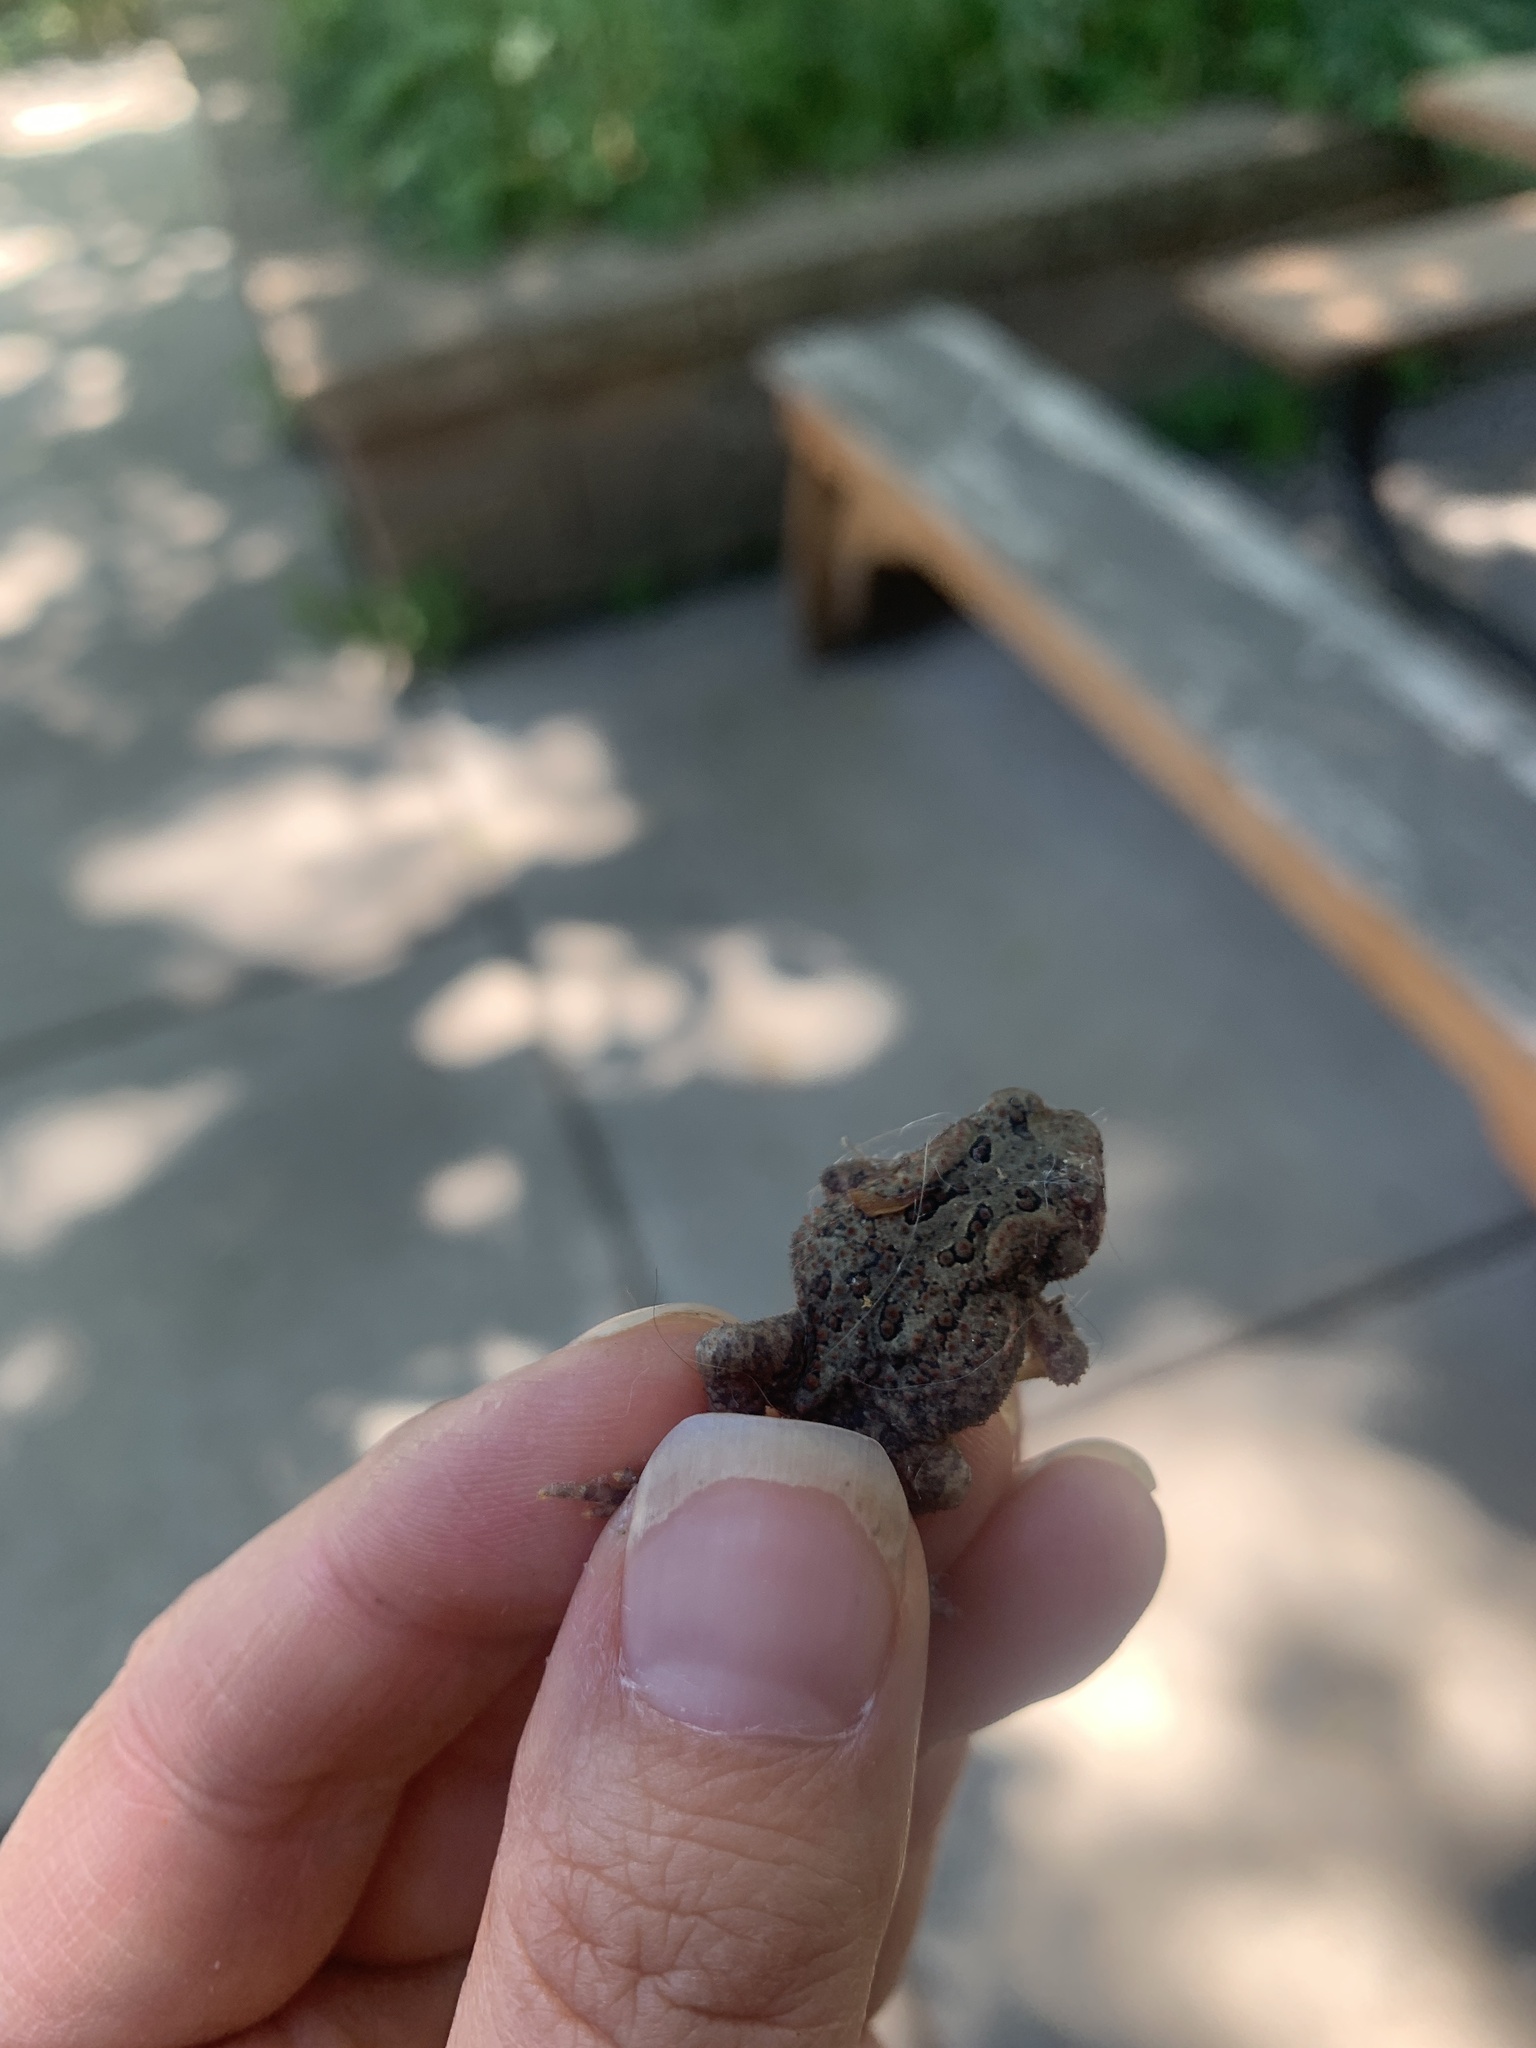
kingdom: Animalia
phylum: Chordata
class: Amphibia
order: Anura
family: Bufonidae
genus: Anaxyrus
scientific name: Anaxyrus americanus
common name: American toad
